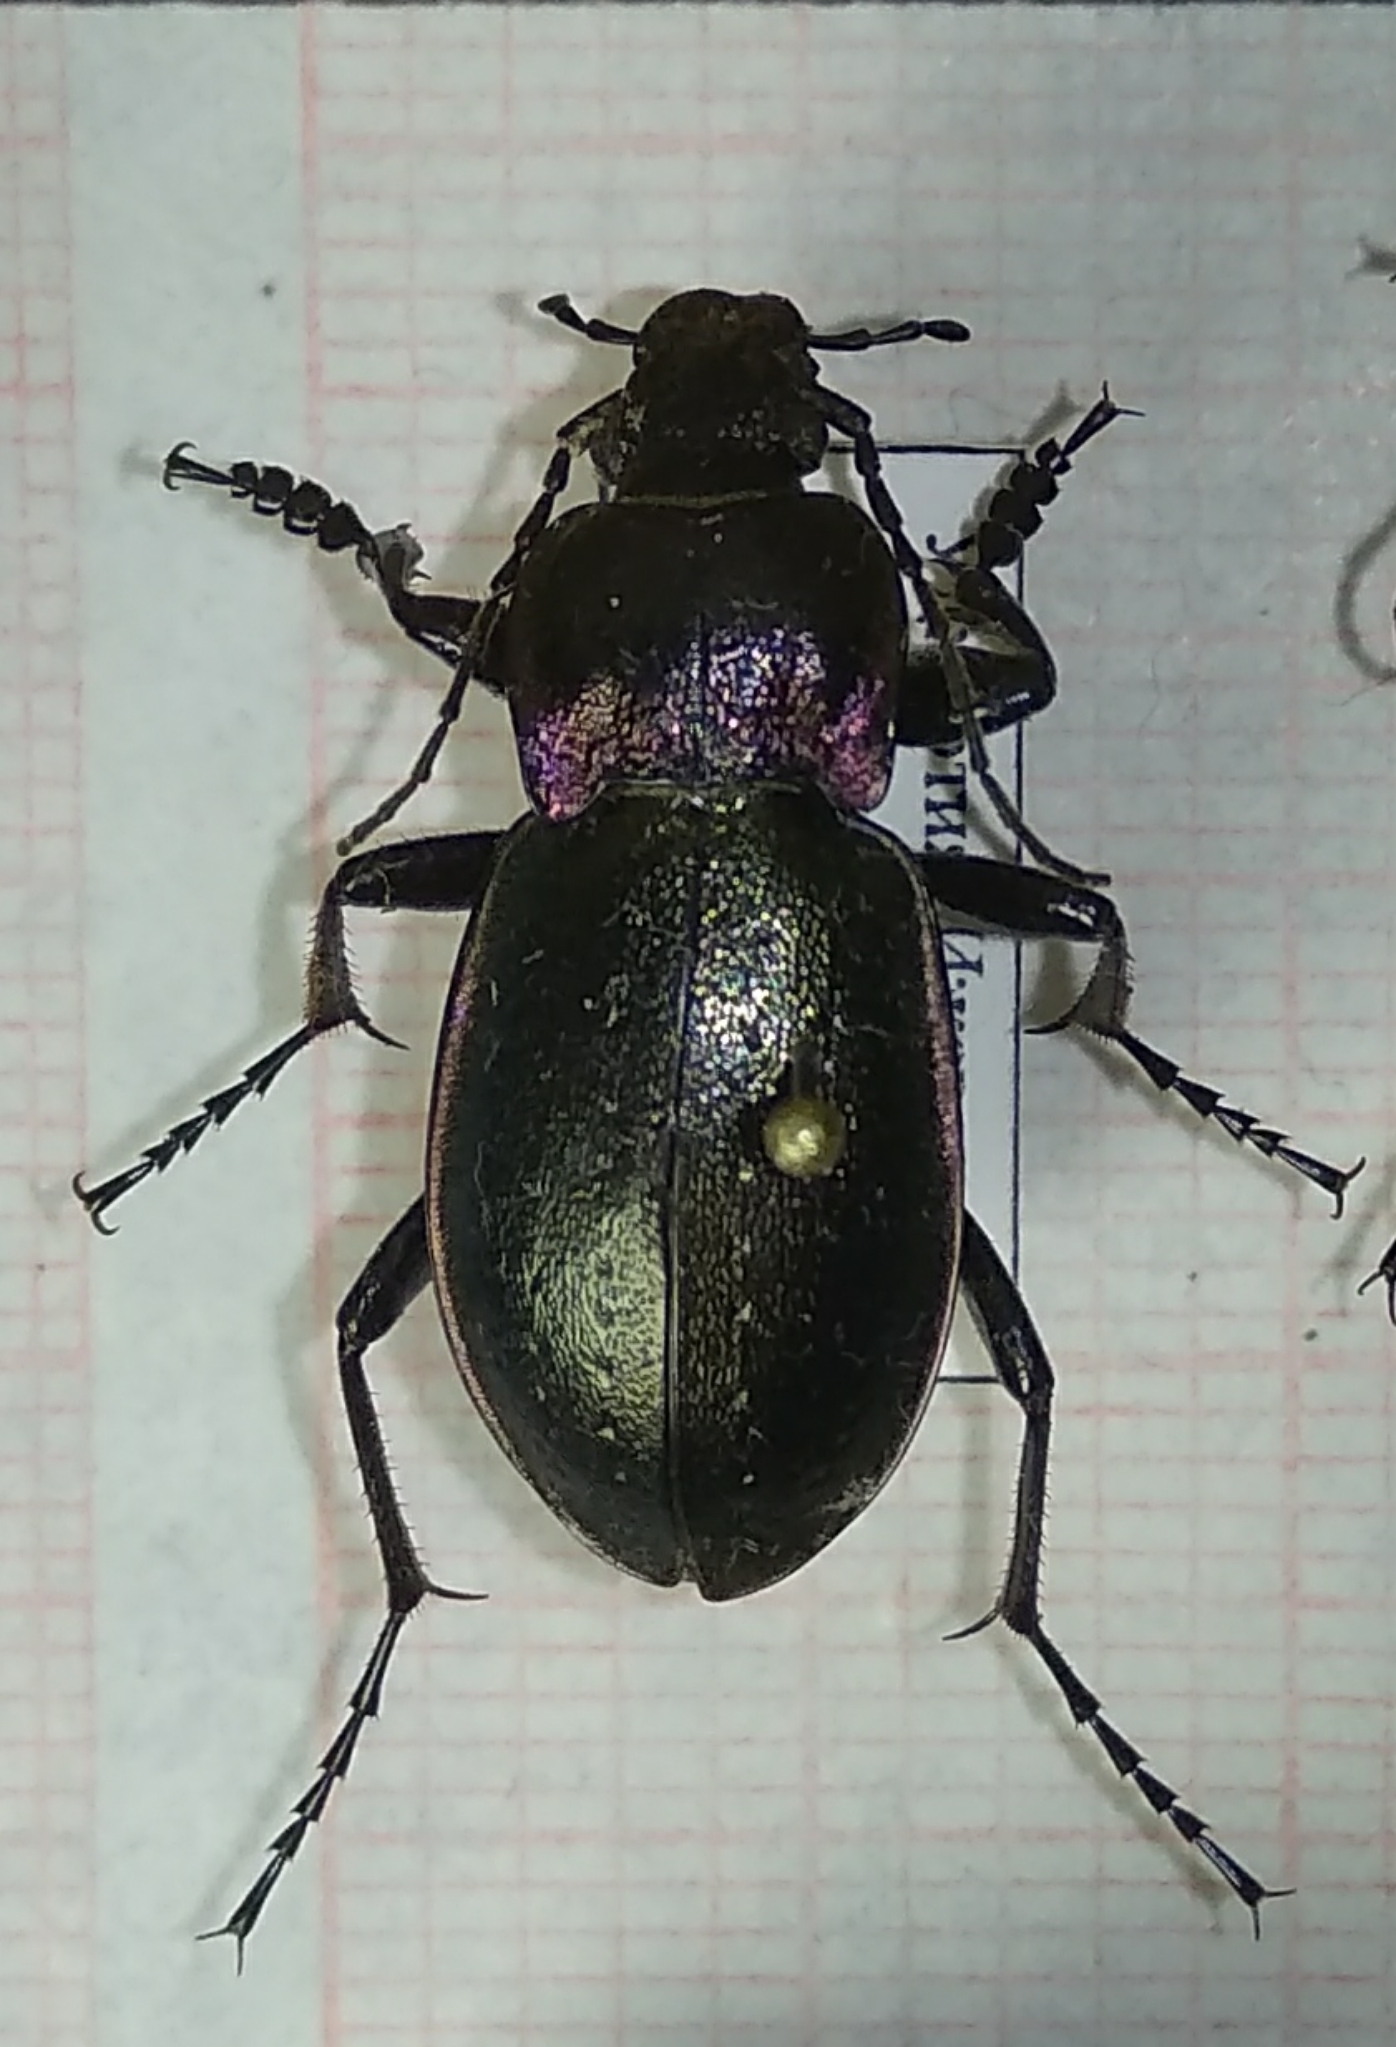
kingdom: Animalia
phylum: Arthropoda
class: Insecta
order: Coleoptera
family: Carabidae
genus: Carabus
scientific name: Carabus nemoralis
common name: European ground beetle
